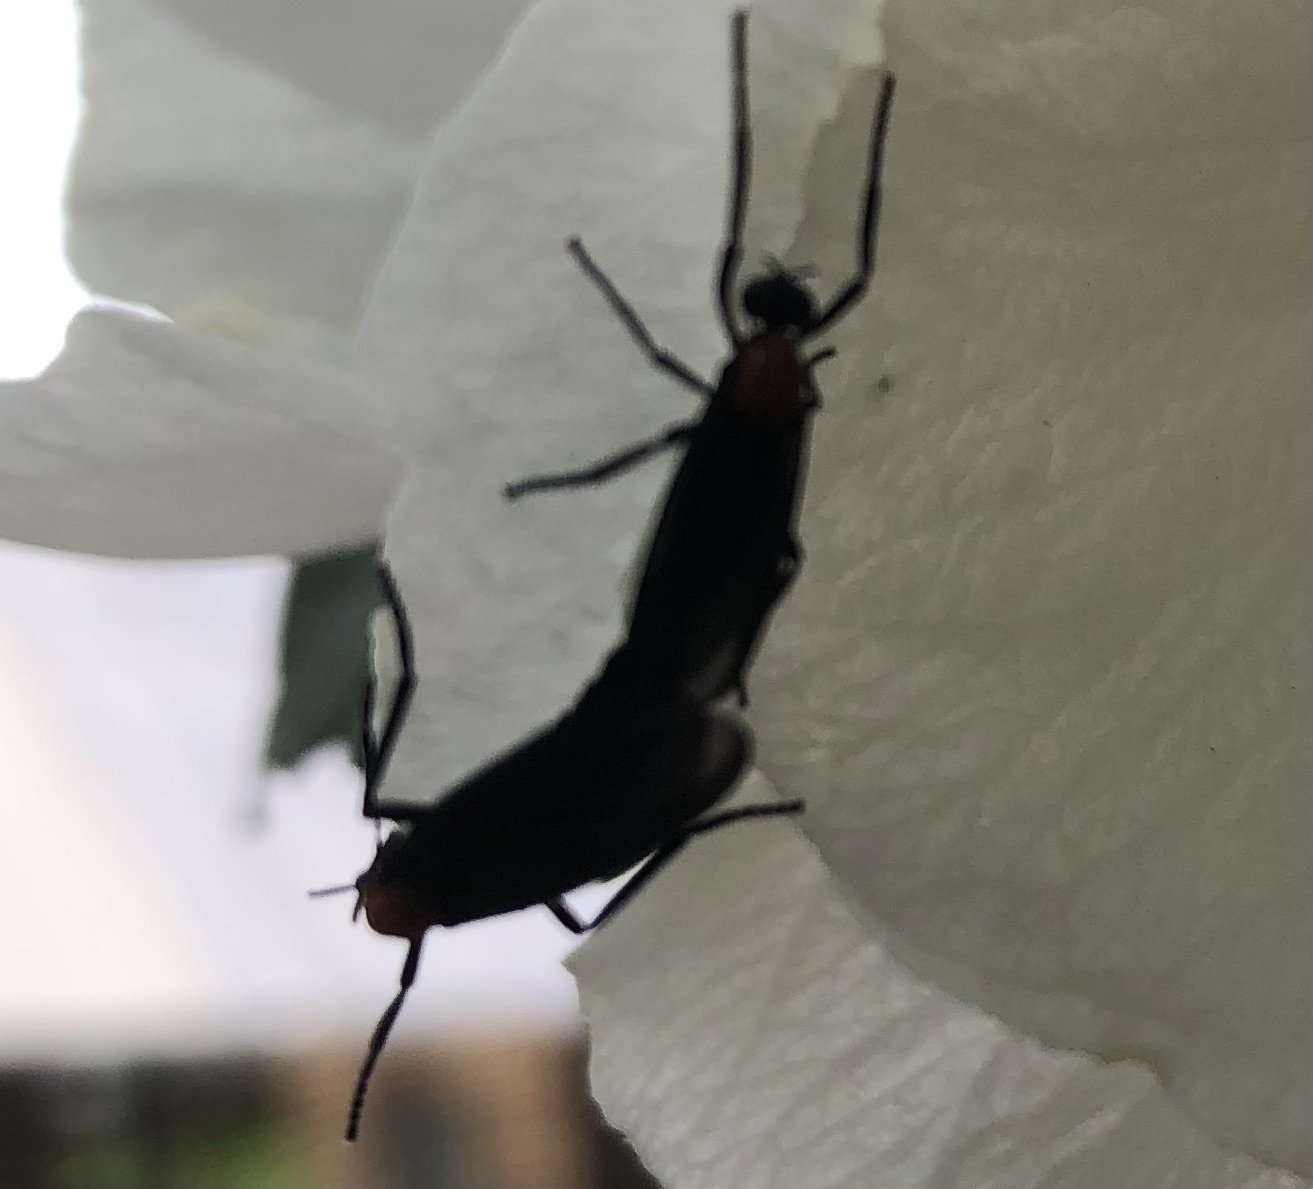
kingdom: Animalia
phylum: Arthropoda
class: Insecta
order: Diptera
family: Bibionidae
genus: Plecia
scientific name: Plecia nearctica
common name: March fly
